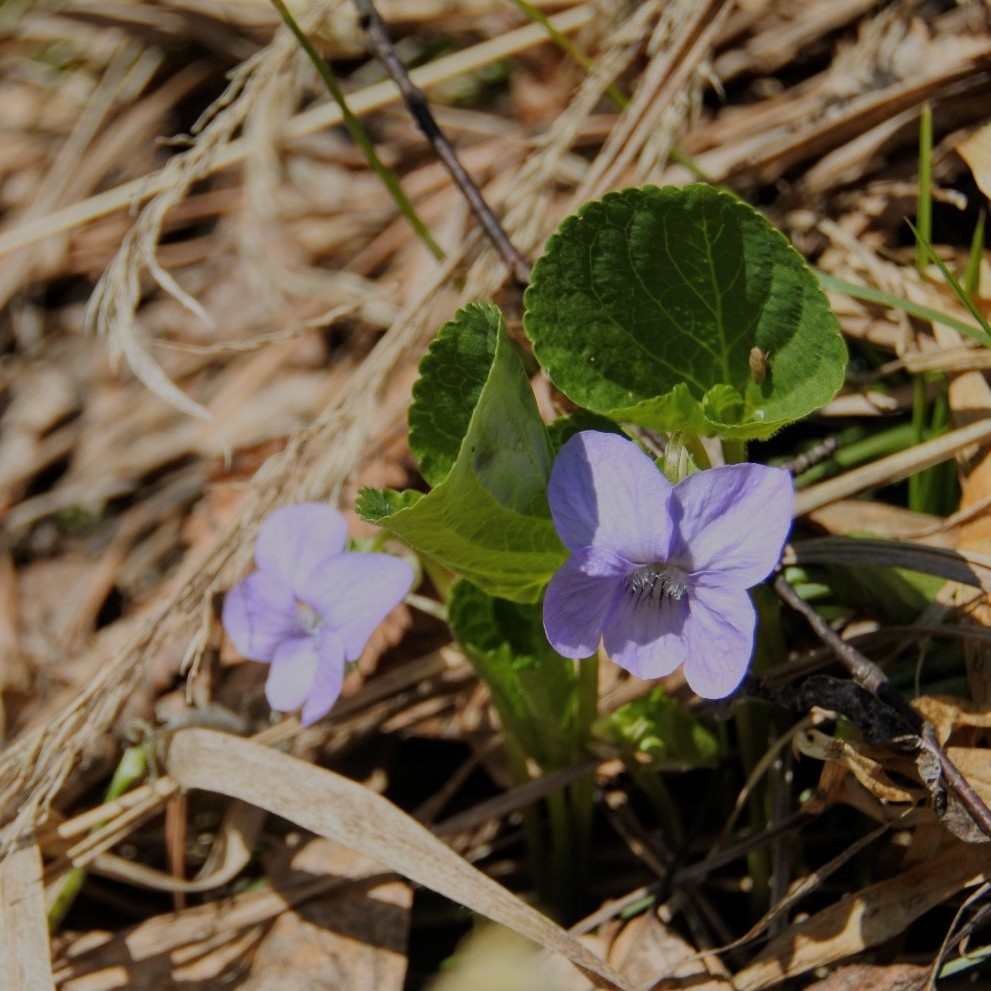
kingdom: Plantae
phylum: Tracheophyta
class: Magnoliopsida
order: Malpighiales
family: Violaceae
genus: Viola
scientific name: Viola mirabilis
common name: Wonder violet
